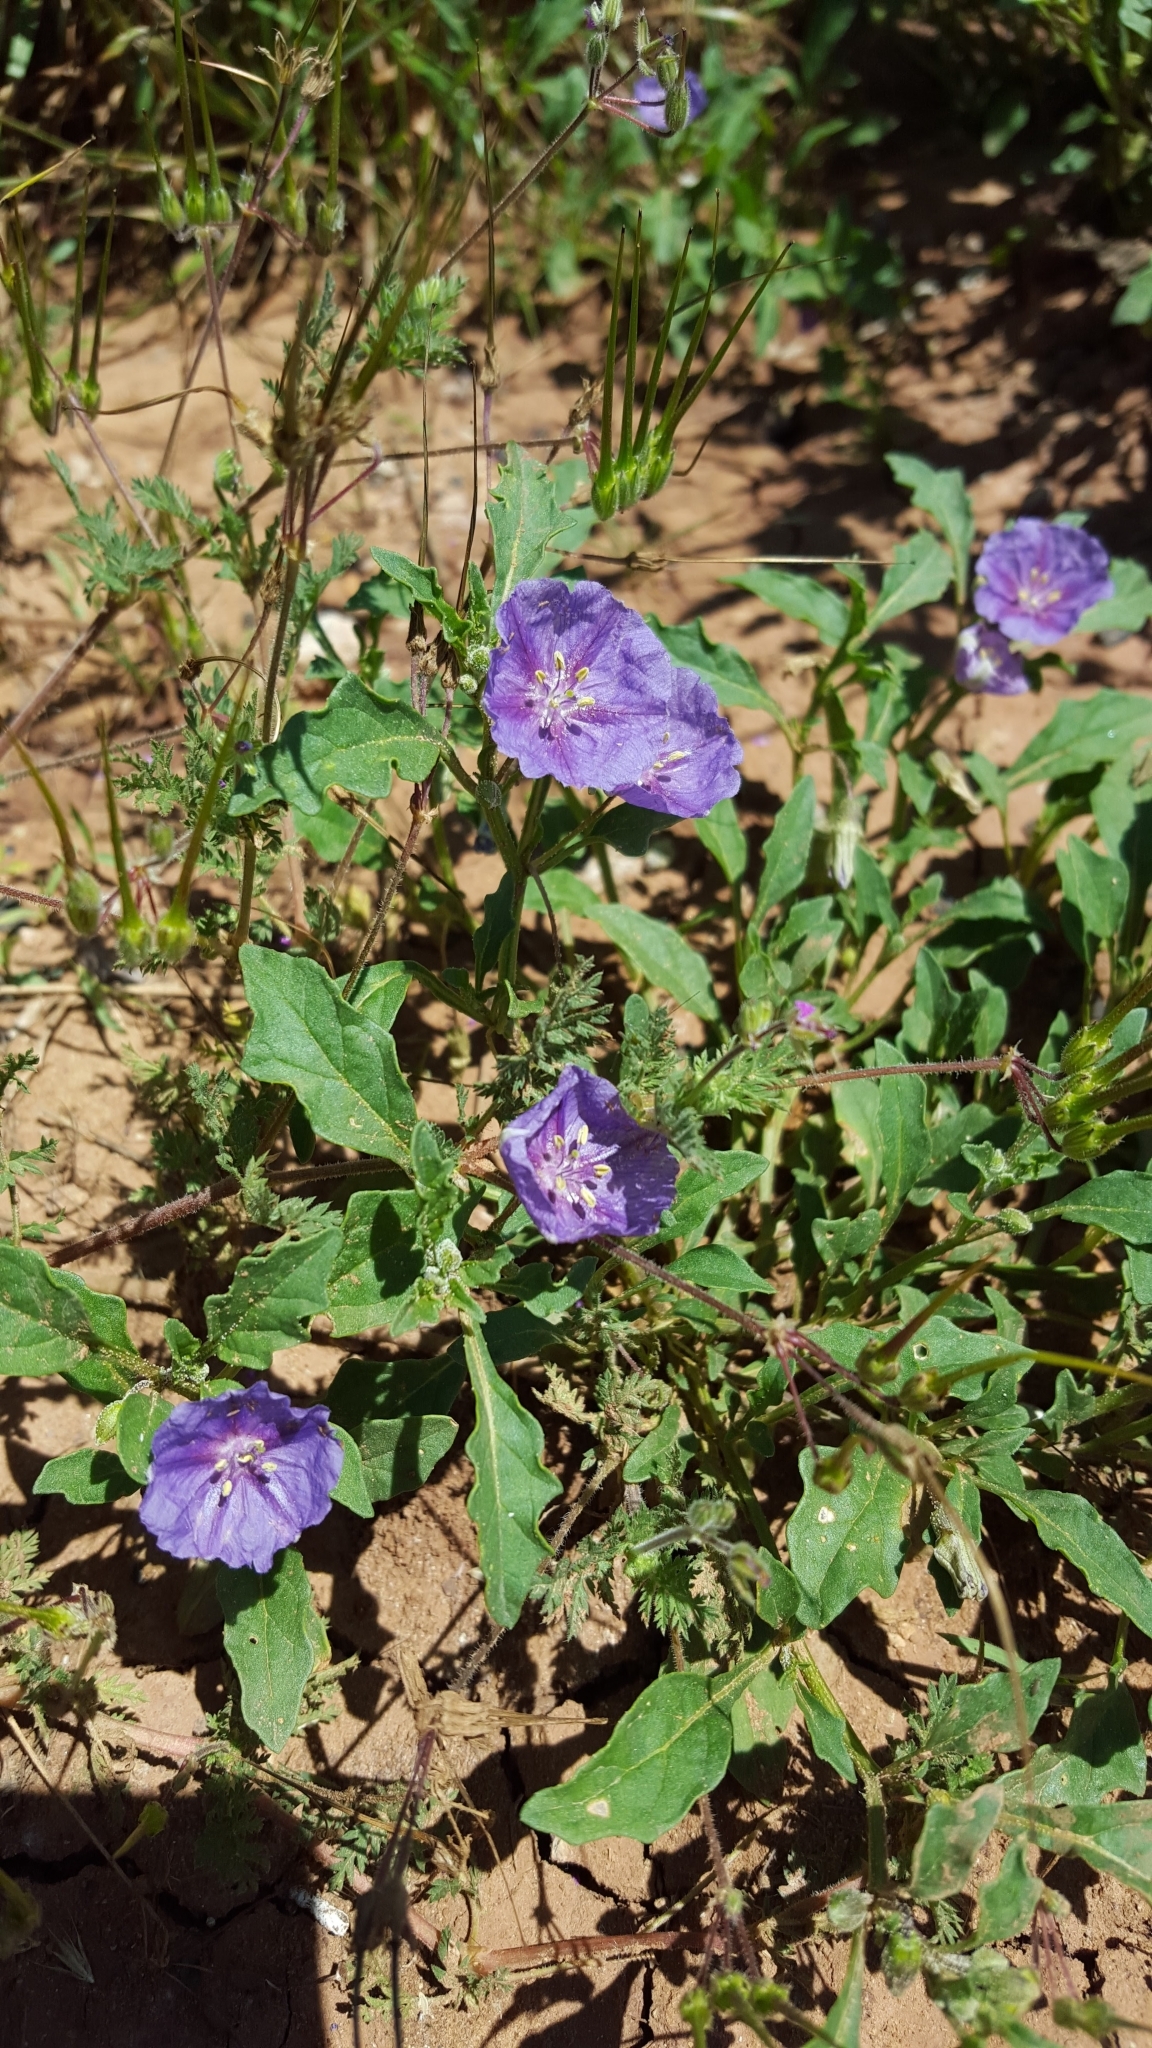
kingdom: Plantae
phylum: Tracheophyta
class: Magnoliopsida
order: Solanales
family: Solanaceae
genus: Quincula
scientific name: Quincula lobata
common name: Purple-ground-cherry
